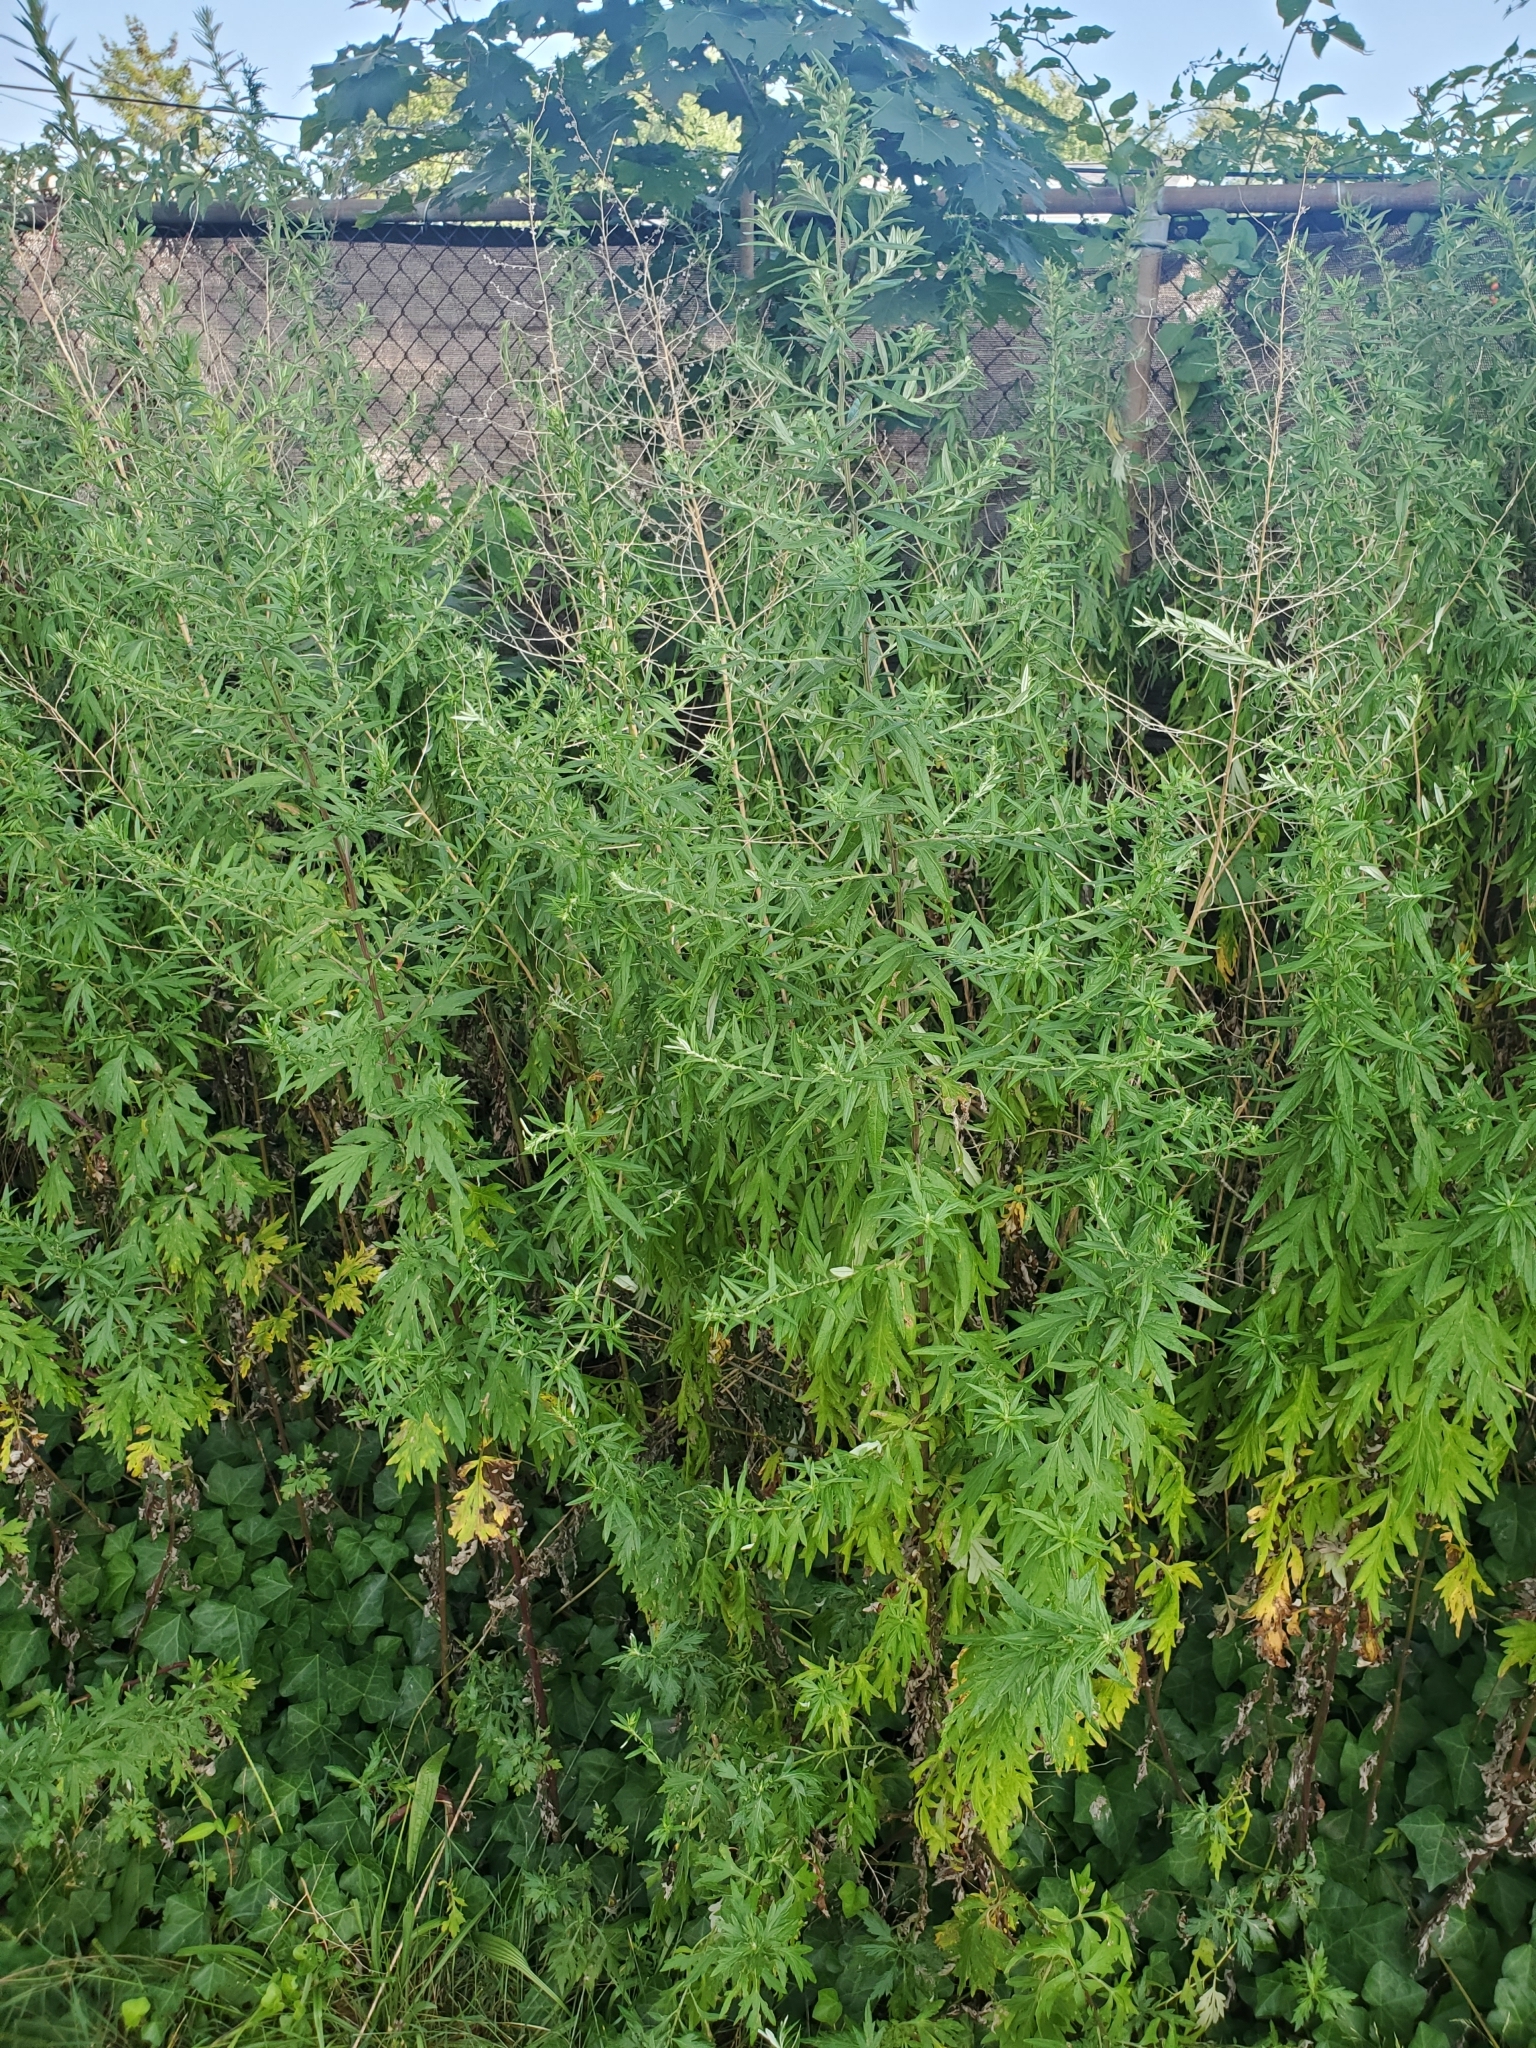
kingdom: Plantae
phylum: Tracheophyta
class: Magnoliopsida
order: Asterales
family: Asteraceae
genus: Artemisia
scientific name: Artemisia vulgaris
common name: Mugwort
